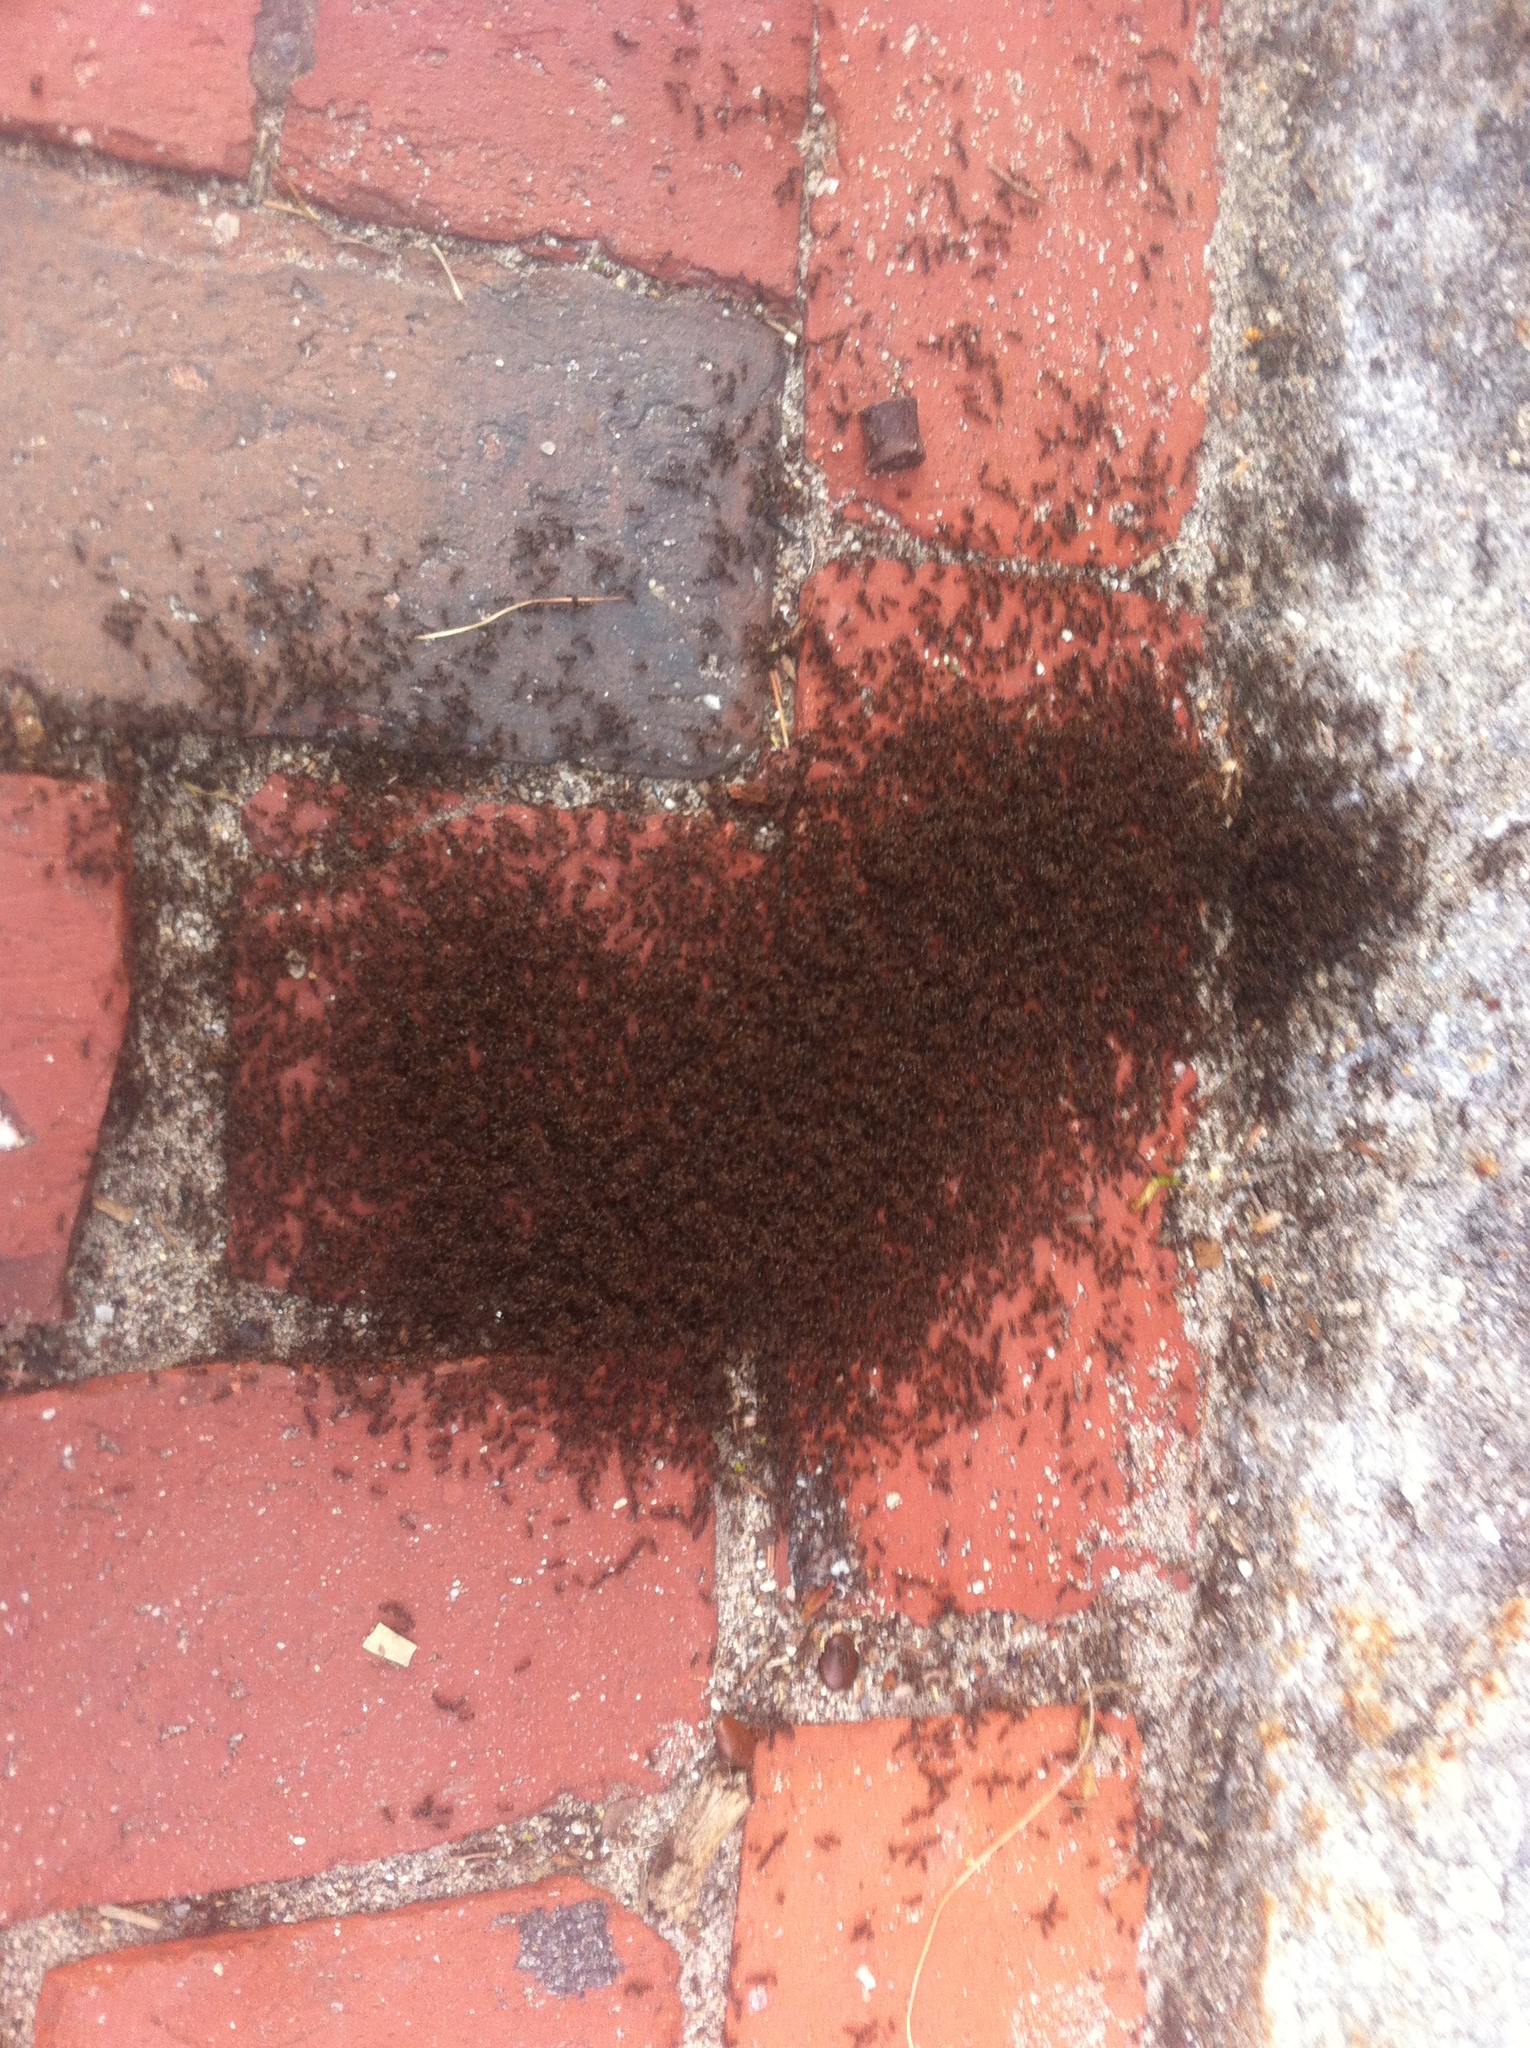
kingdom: Animalia
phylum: Arthropoda
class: Insecta
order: Hymenoptera
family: Formicidae
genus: Tetramorium
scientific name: Tetramorium immigrans
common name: Pavement ant
